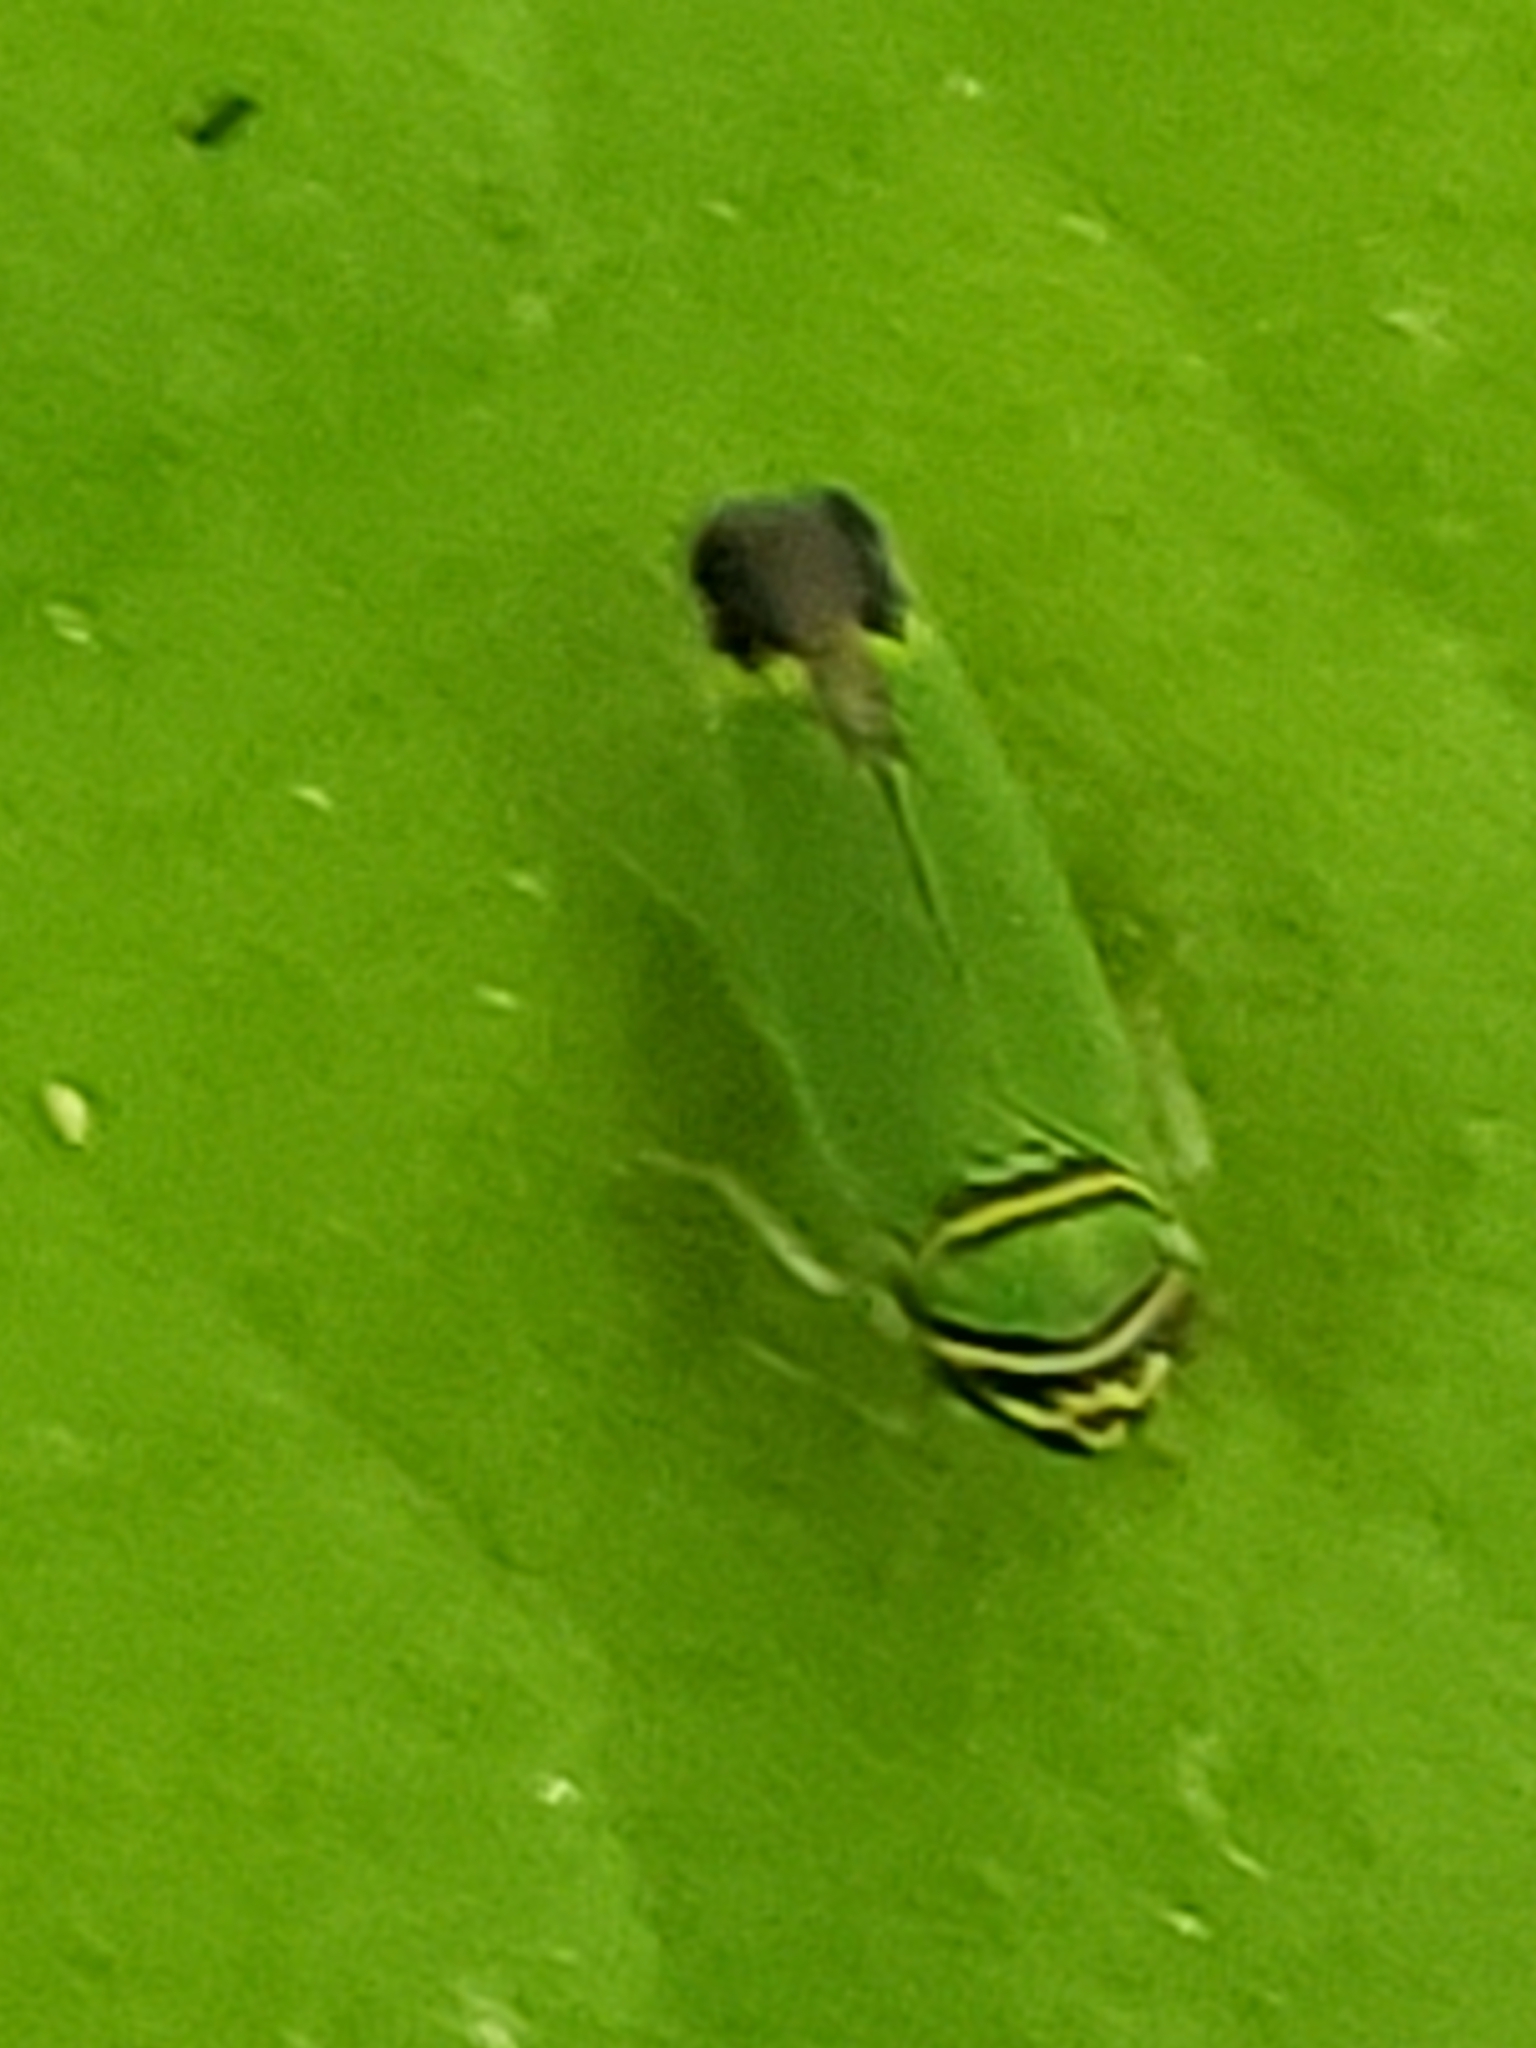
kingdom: Animalia
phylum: Arthropoda
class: Insecta
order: Hemiptera
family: Cicadellidae
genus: Tylozygus
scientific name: Tylozygus geometricus
